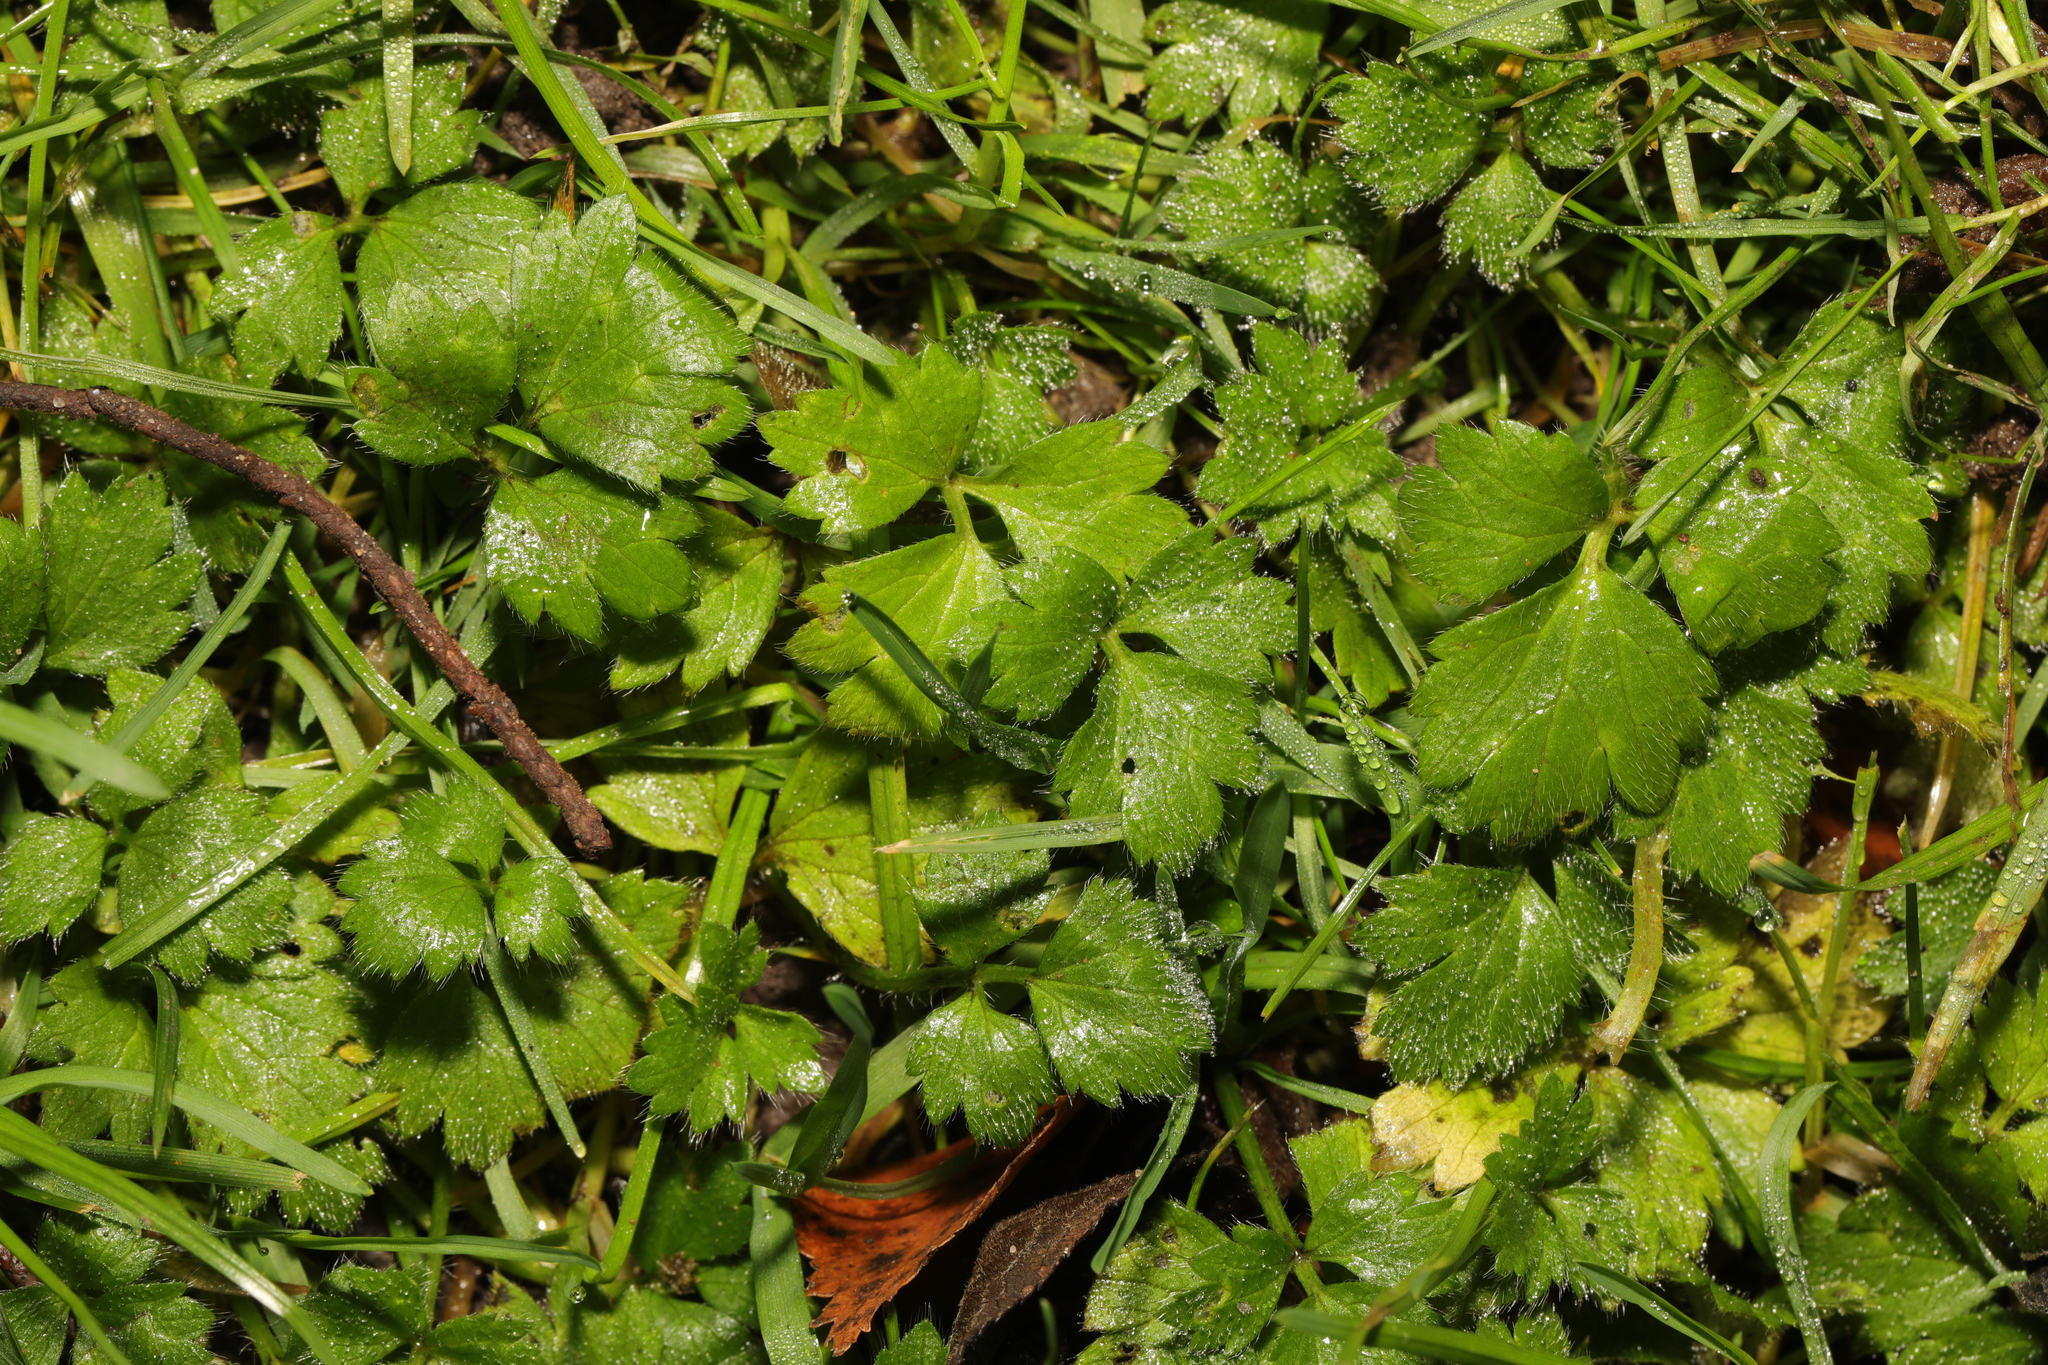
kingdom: Plantae
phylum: Tracheophyta
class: Magnoliopsida
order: Ranunculales
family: Ranunculaceae
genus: Ranunculus
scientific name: Ranunculus repens
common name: Creeping buttercup
